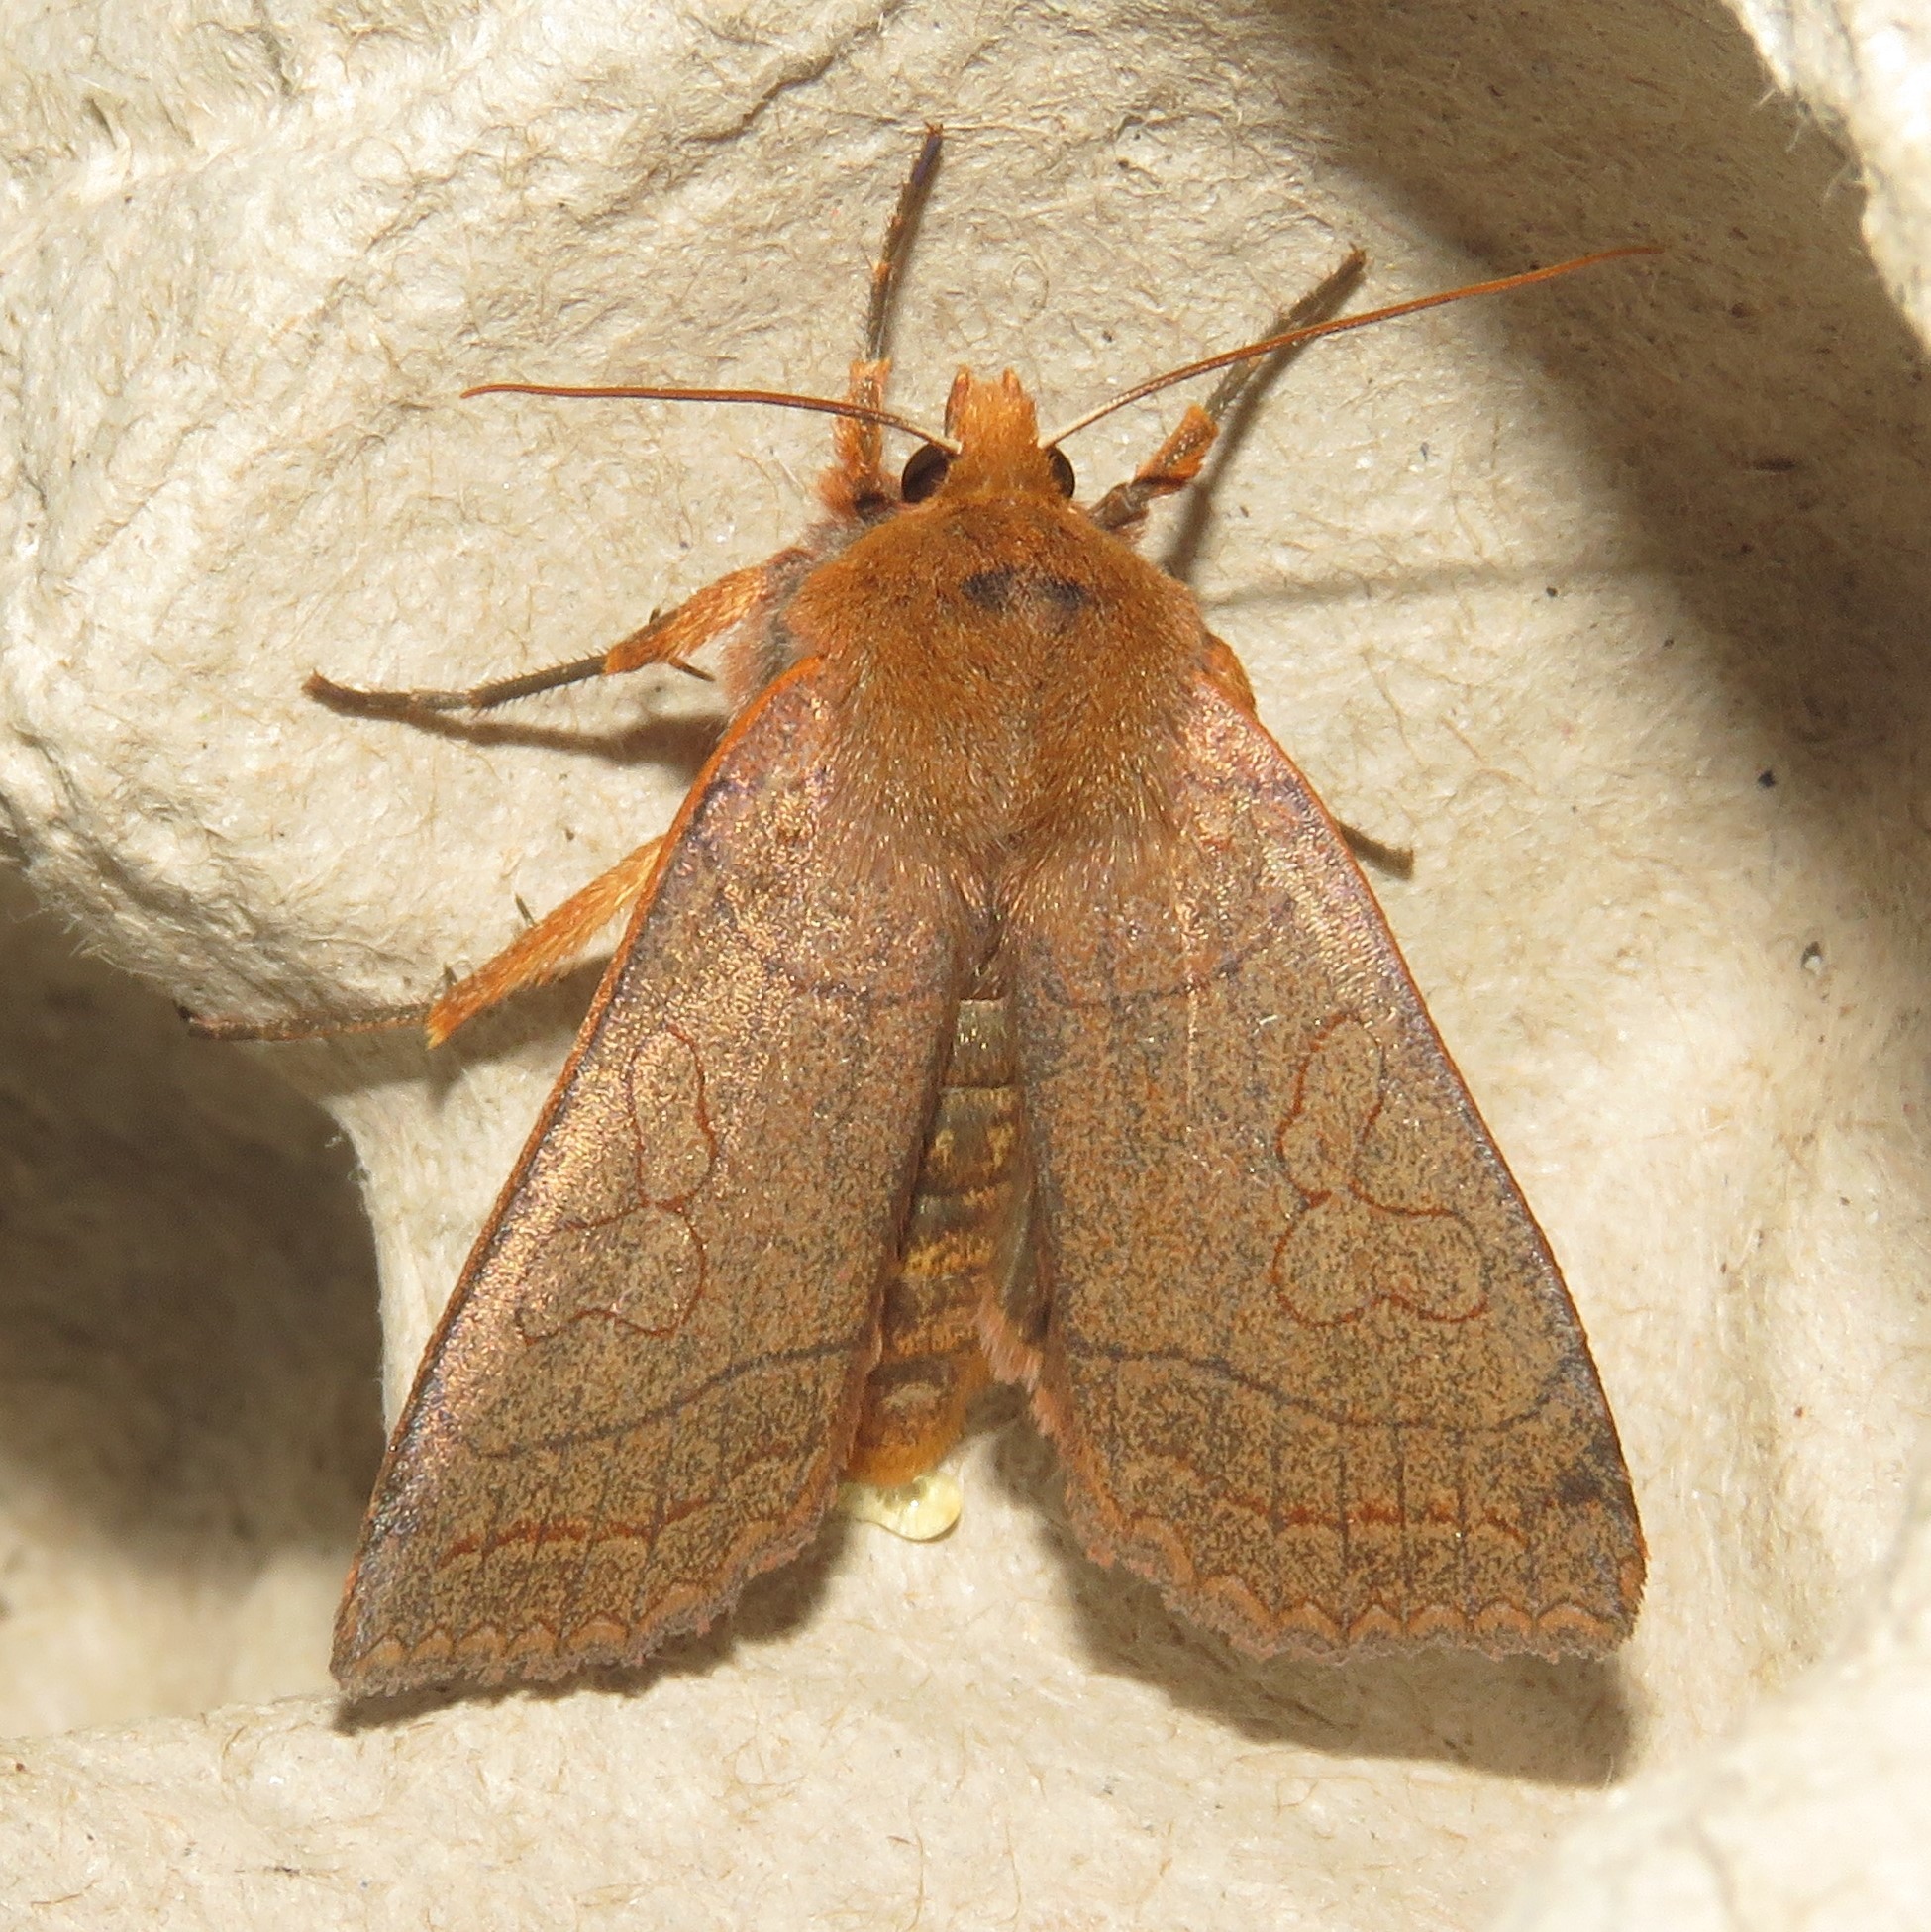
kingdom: Animalia
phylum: Arthropoda
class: Insecta
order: Lepidoptera
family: Noctuidae
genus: Metaxaglaea
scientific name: Metaxaglaea inulta
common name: Unsated sallow
